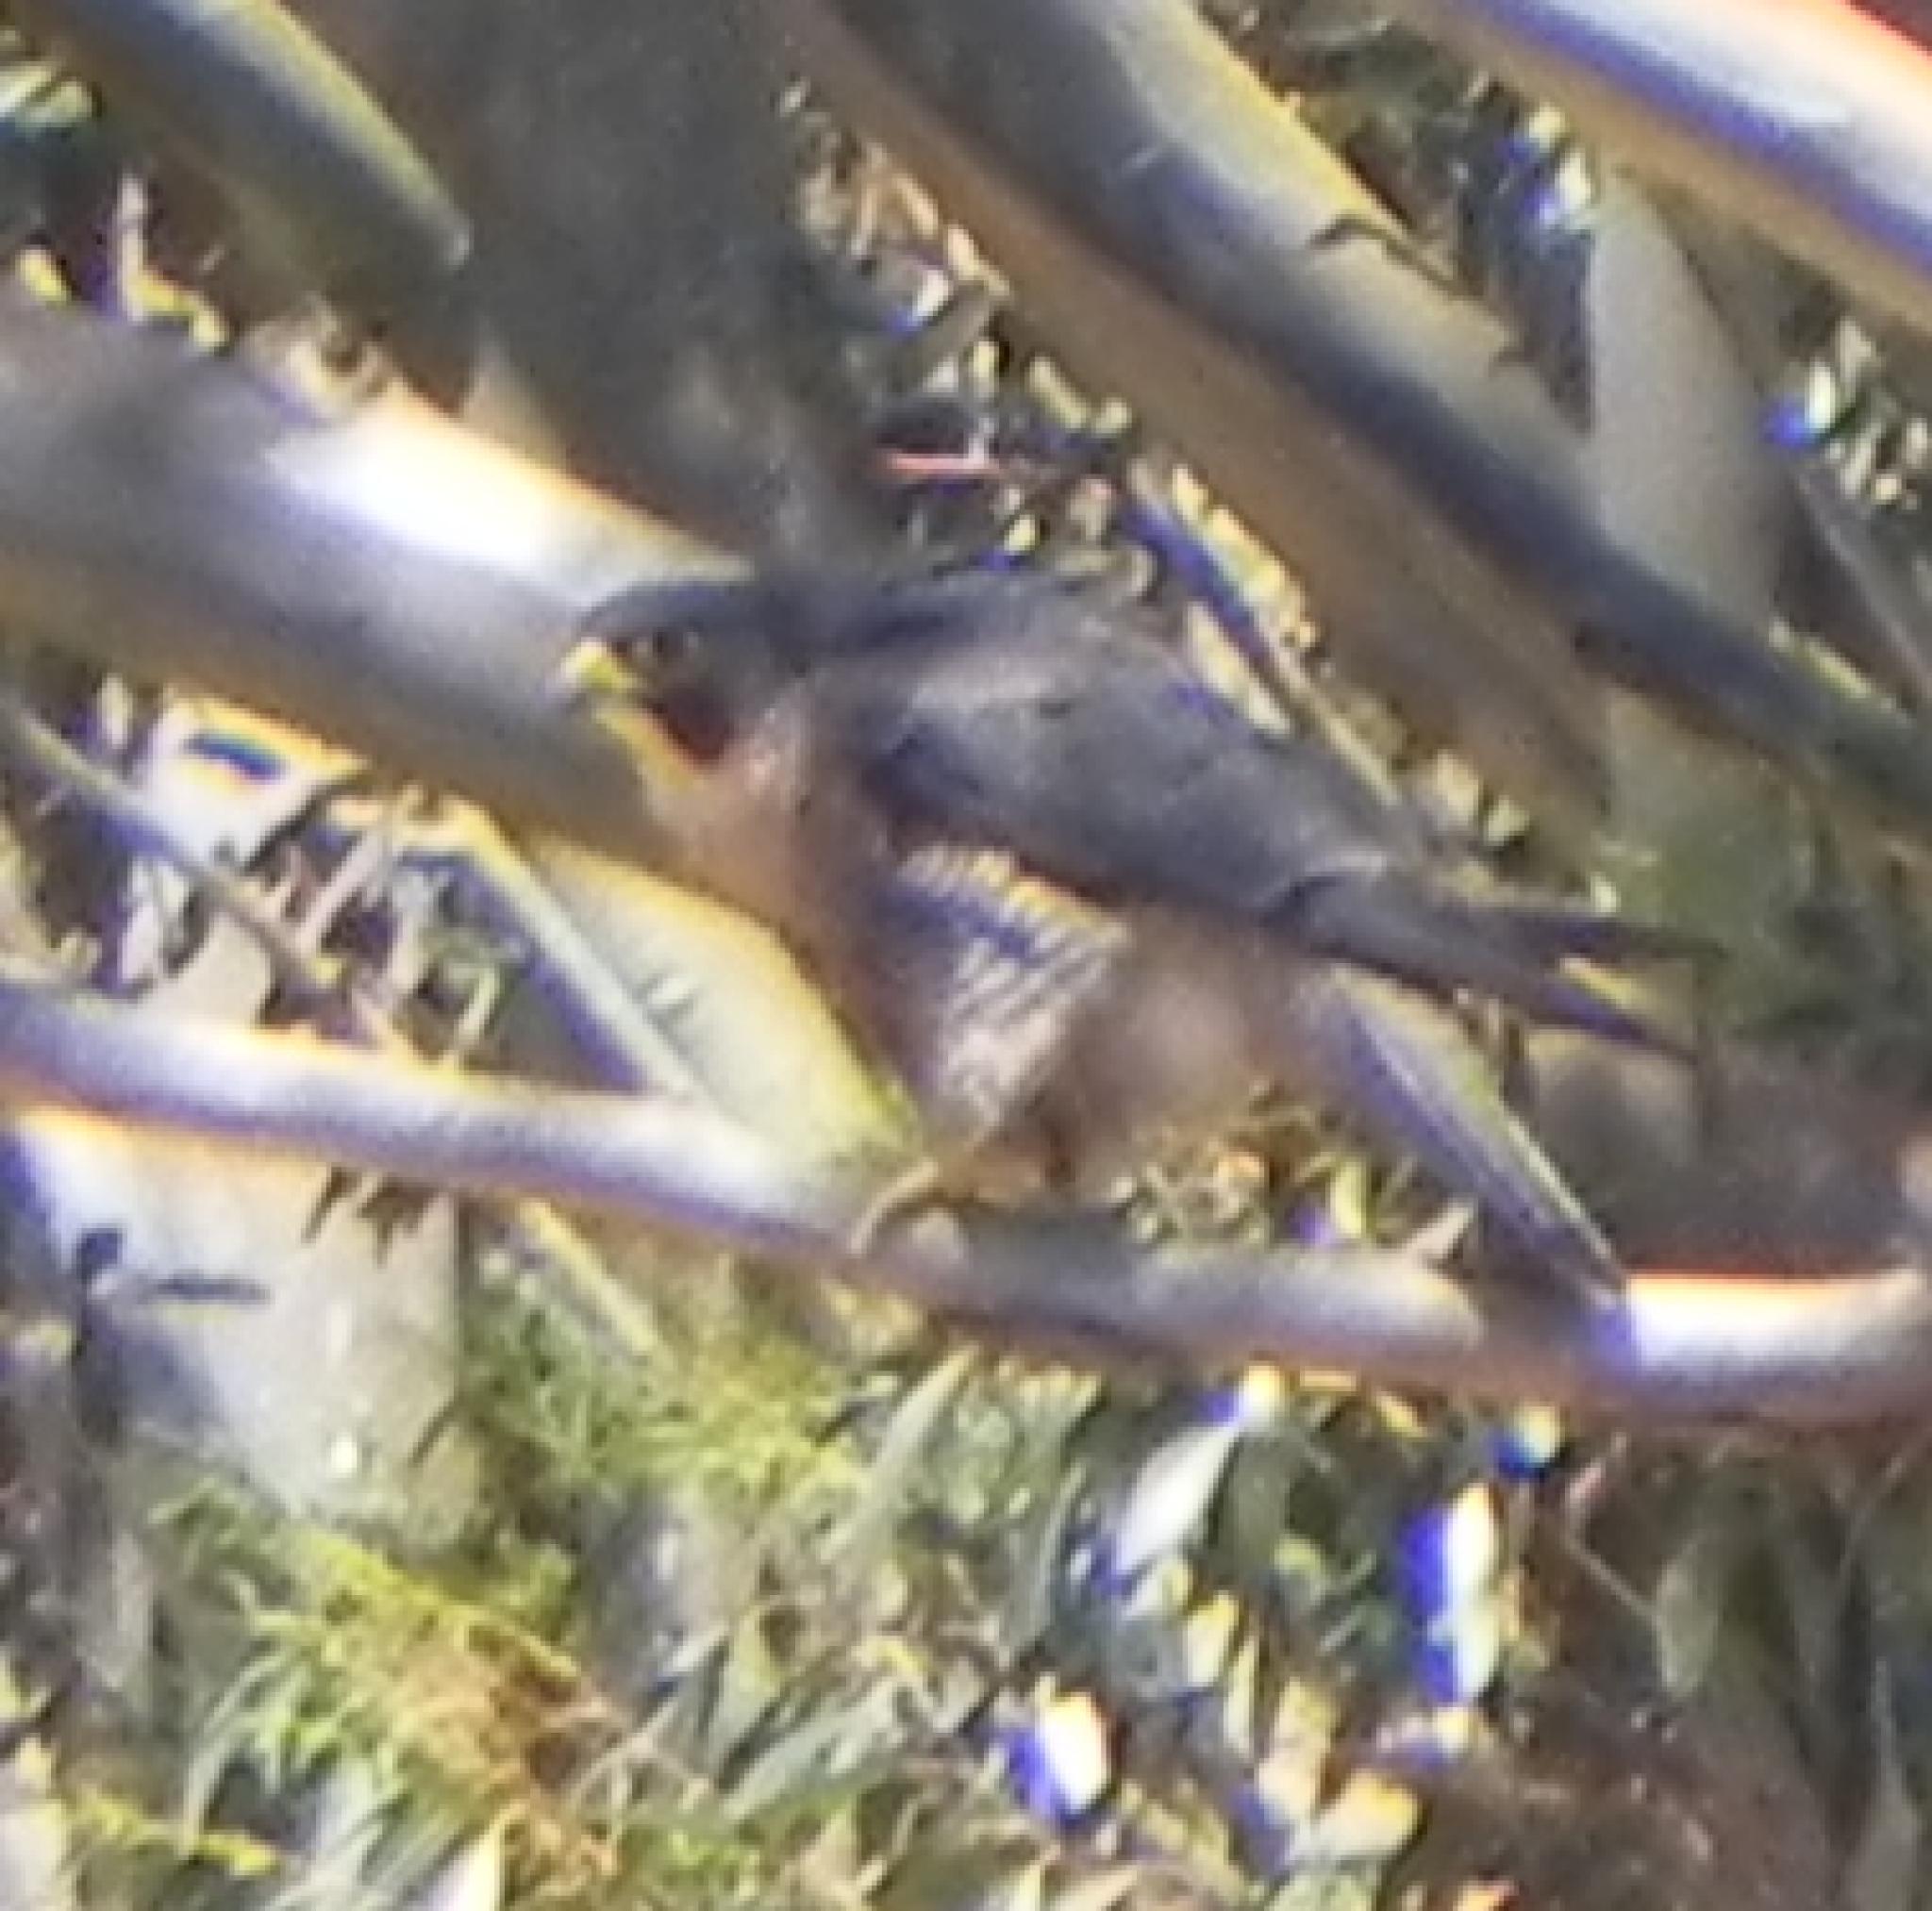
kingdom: Animalia
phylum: Chordata
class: Aves
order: Falconiformes
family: Falconidae
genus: Falco
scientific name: Falco peregrinus
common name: Peregrine falcon
